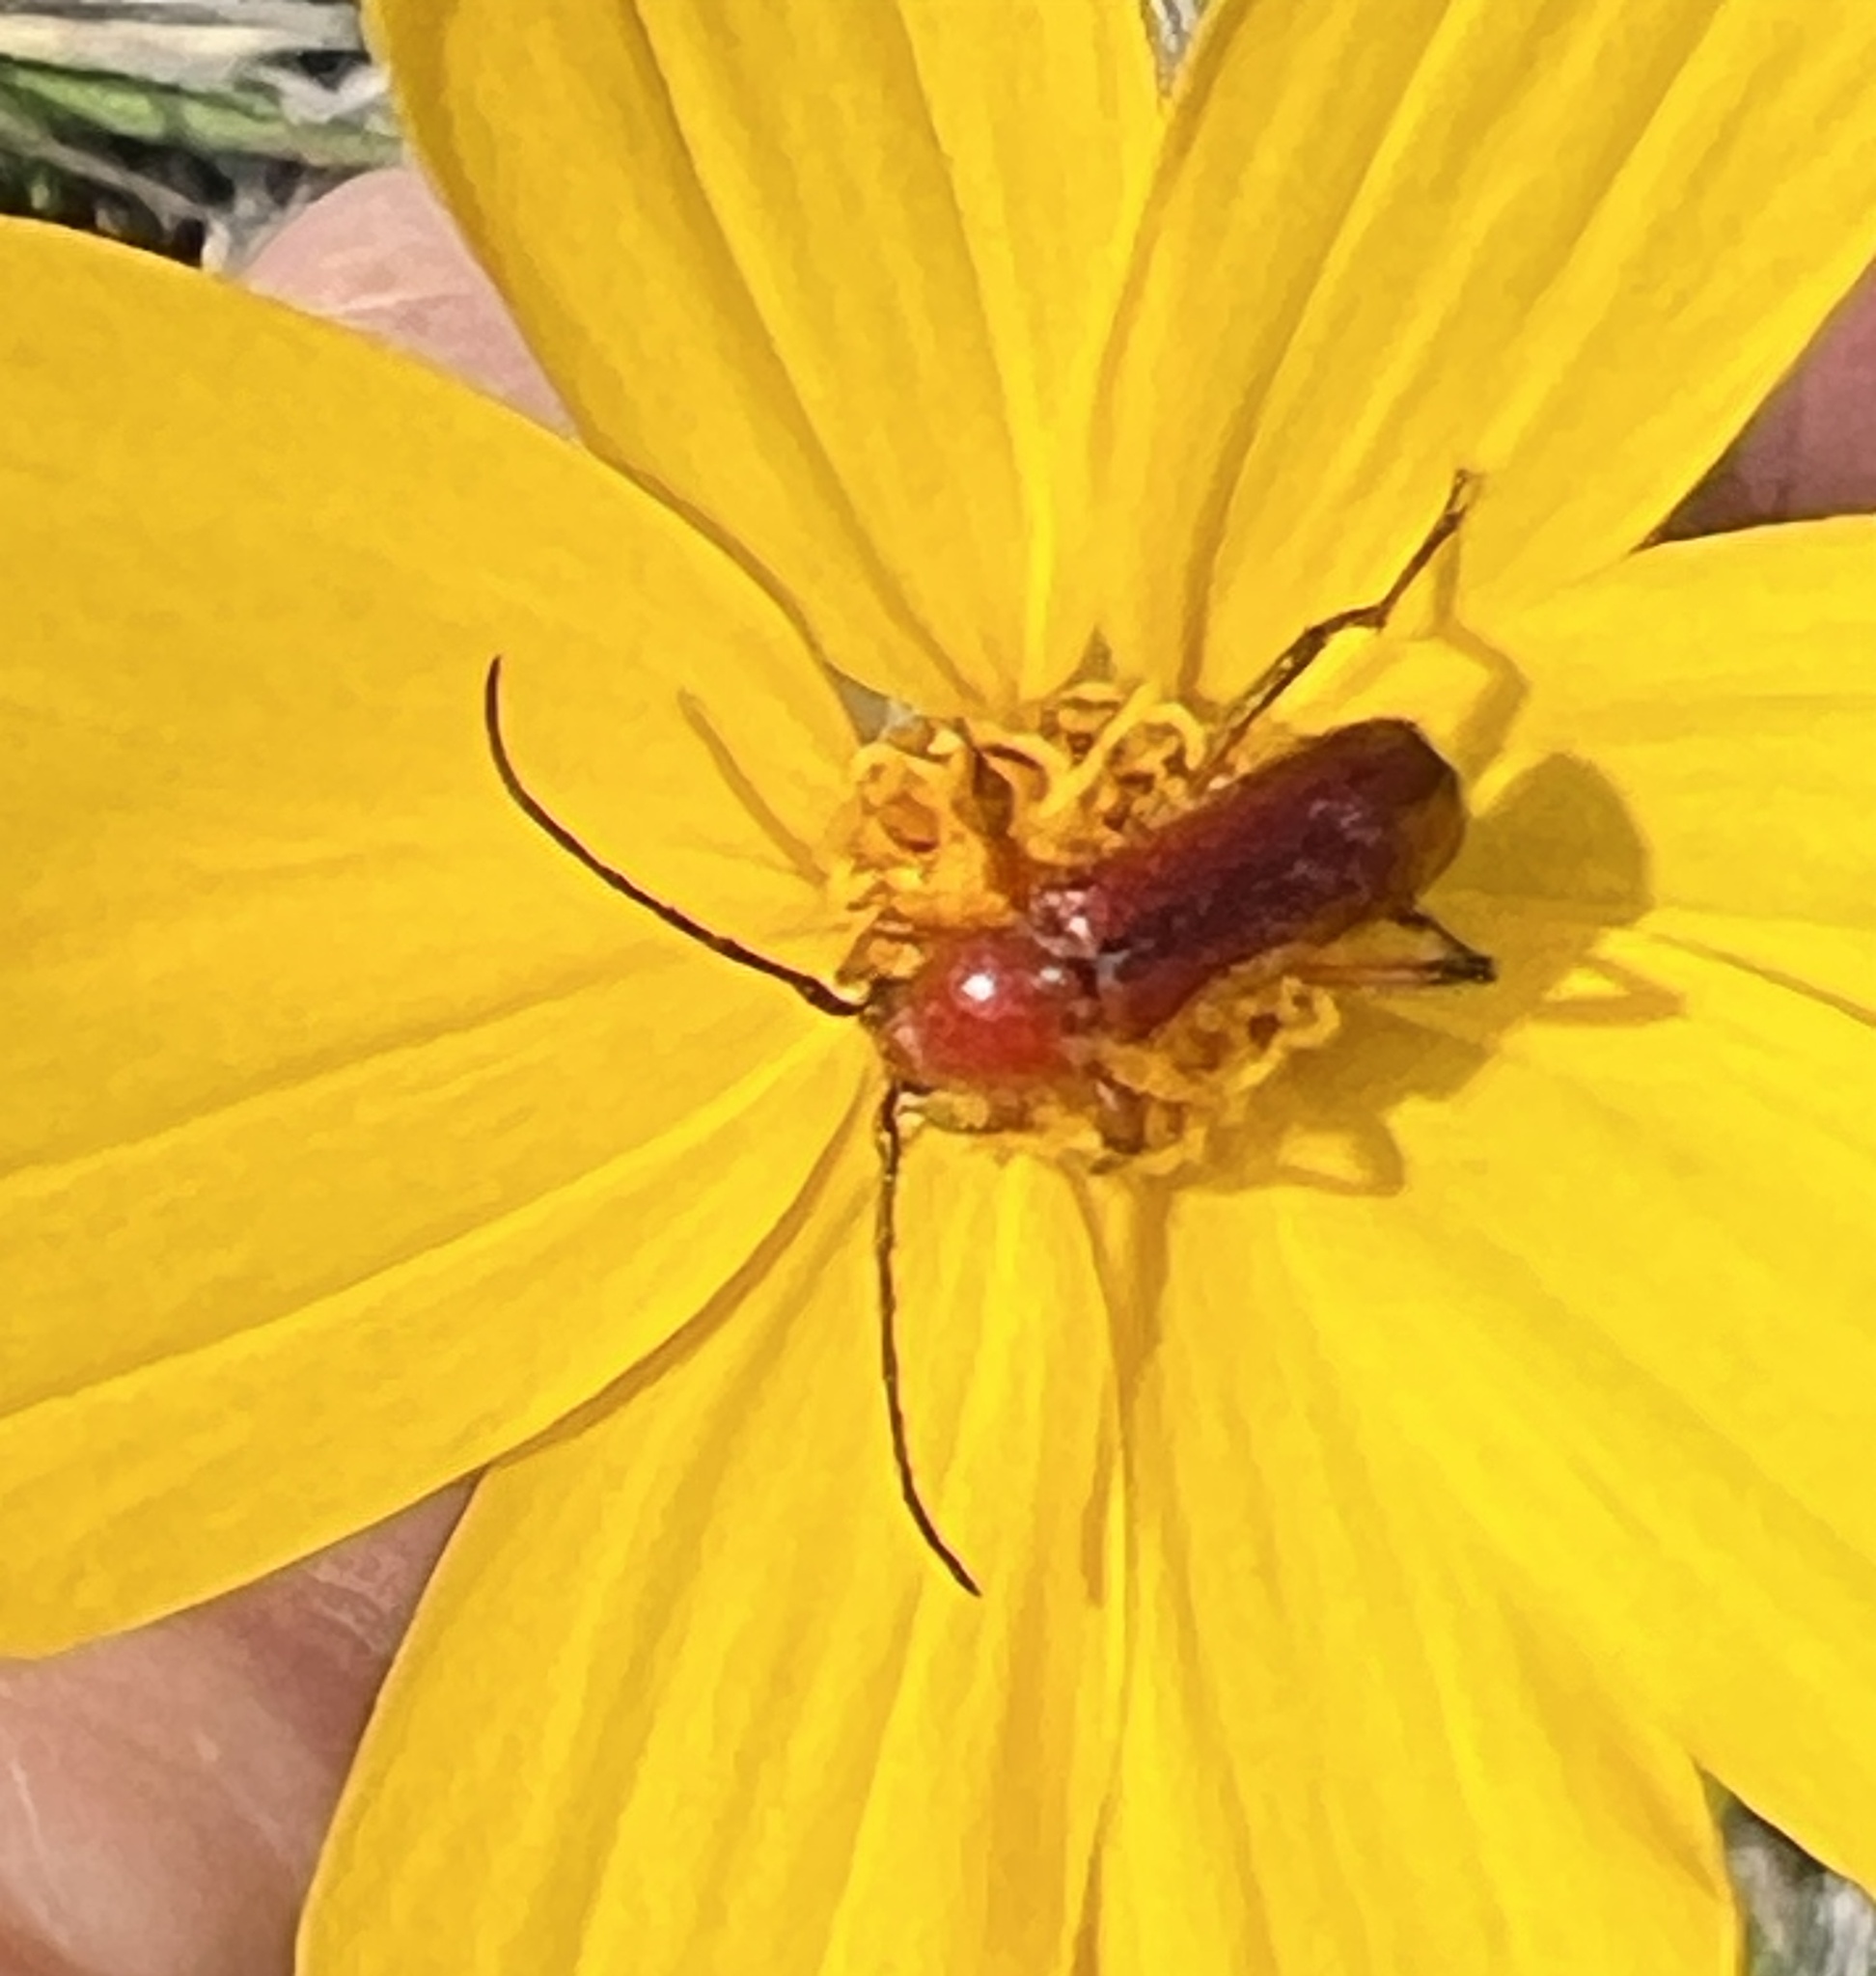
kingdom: Animalia
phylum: Arthropoda
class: Insecta
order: Coleoptera
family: Cerambycidae
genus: Batyle
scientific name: Batyle suturalis
